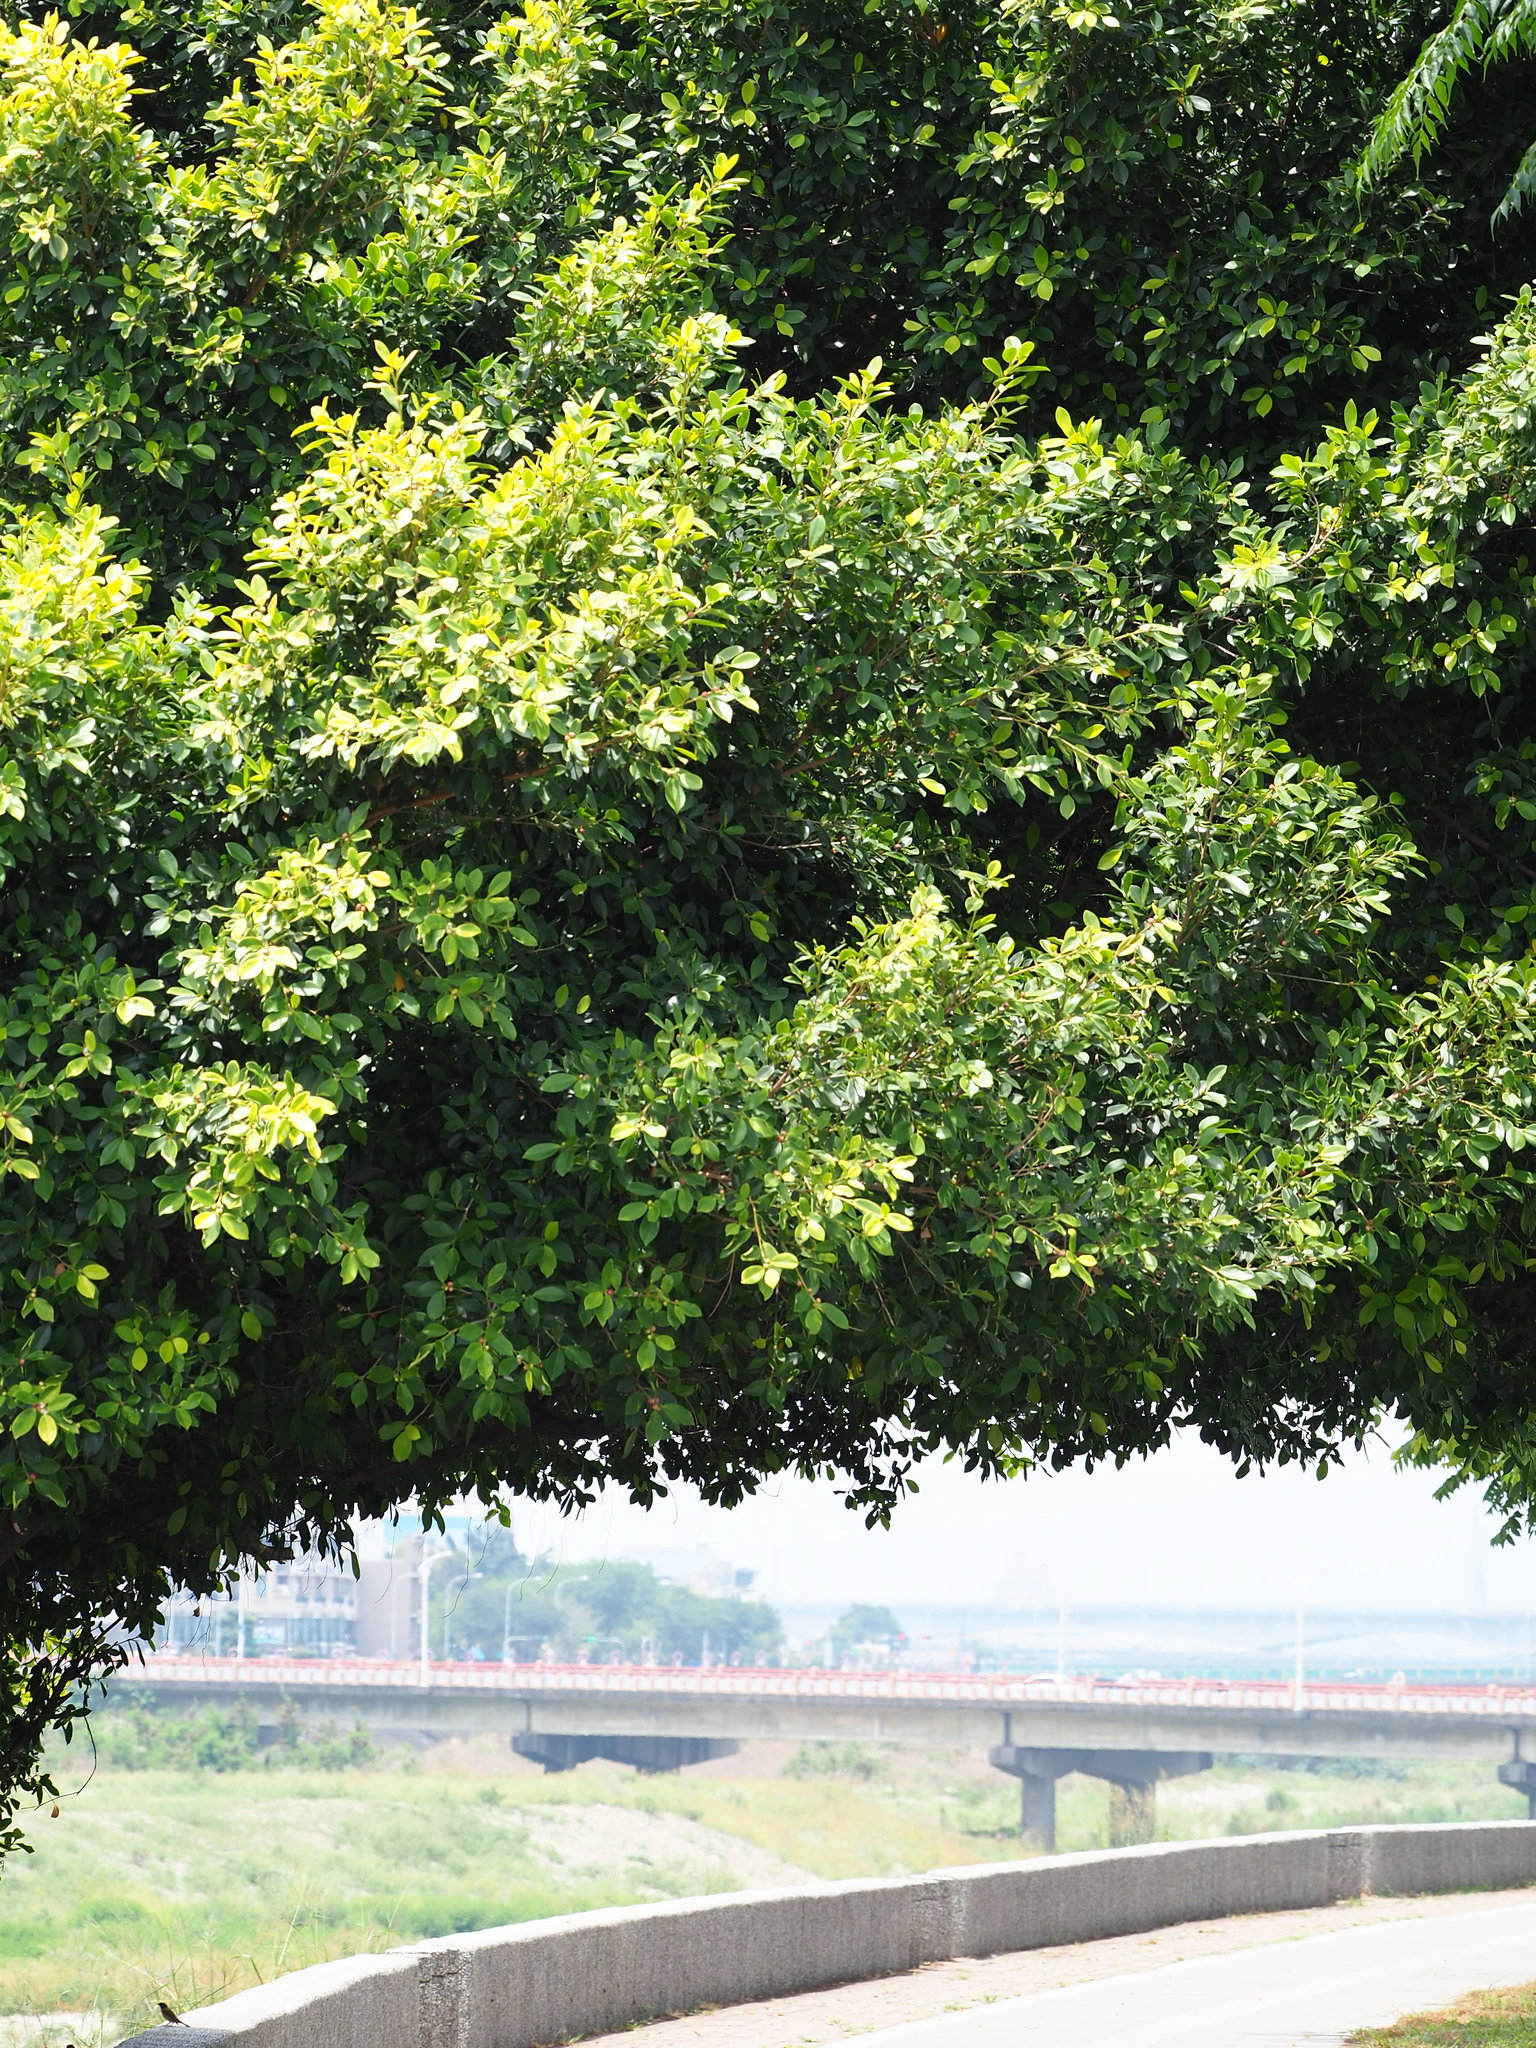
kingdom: Plantae
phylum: Tracheophyta
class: Magnoliopsida
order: Rosales
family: Moraceae
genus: Ficus
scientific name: Ficus microcarpa
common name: Chinese banyan
